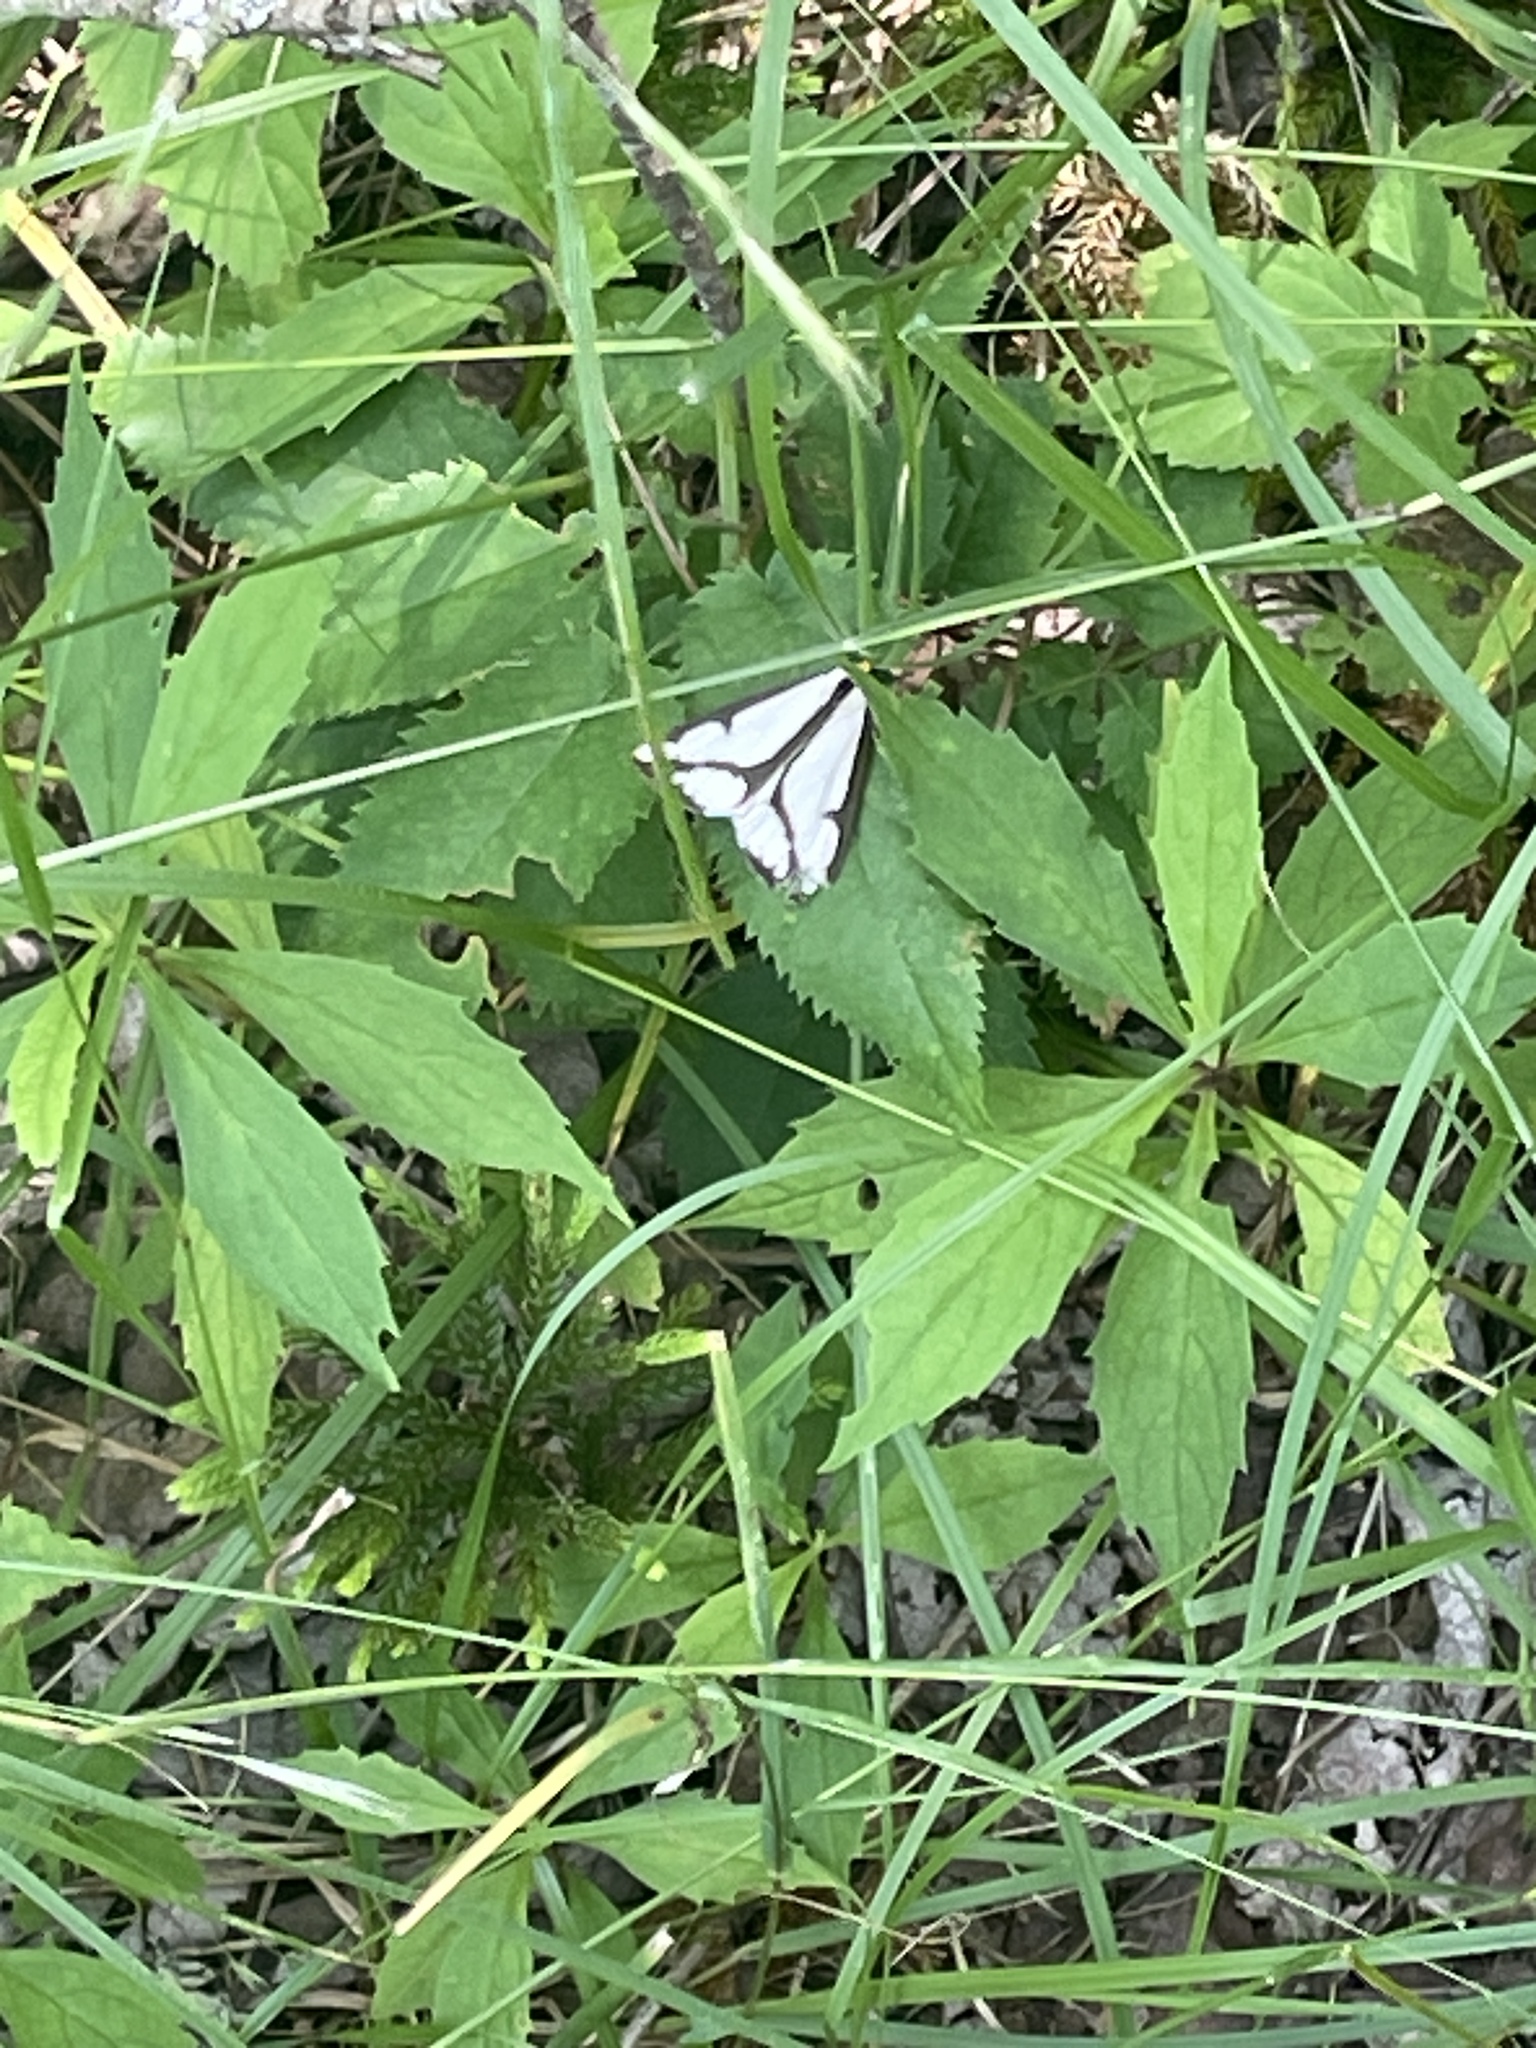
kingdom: Animalia
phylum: Arthropoda
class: Insecta
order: Lepidoptera
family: Erebidae
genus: Haploa
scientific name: Haploa lecontei
